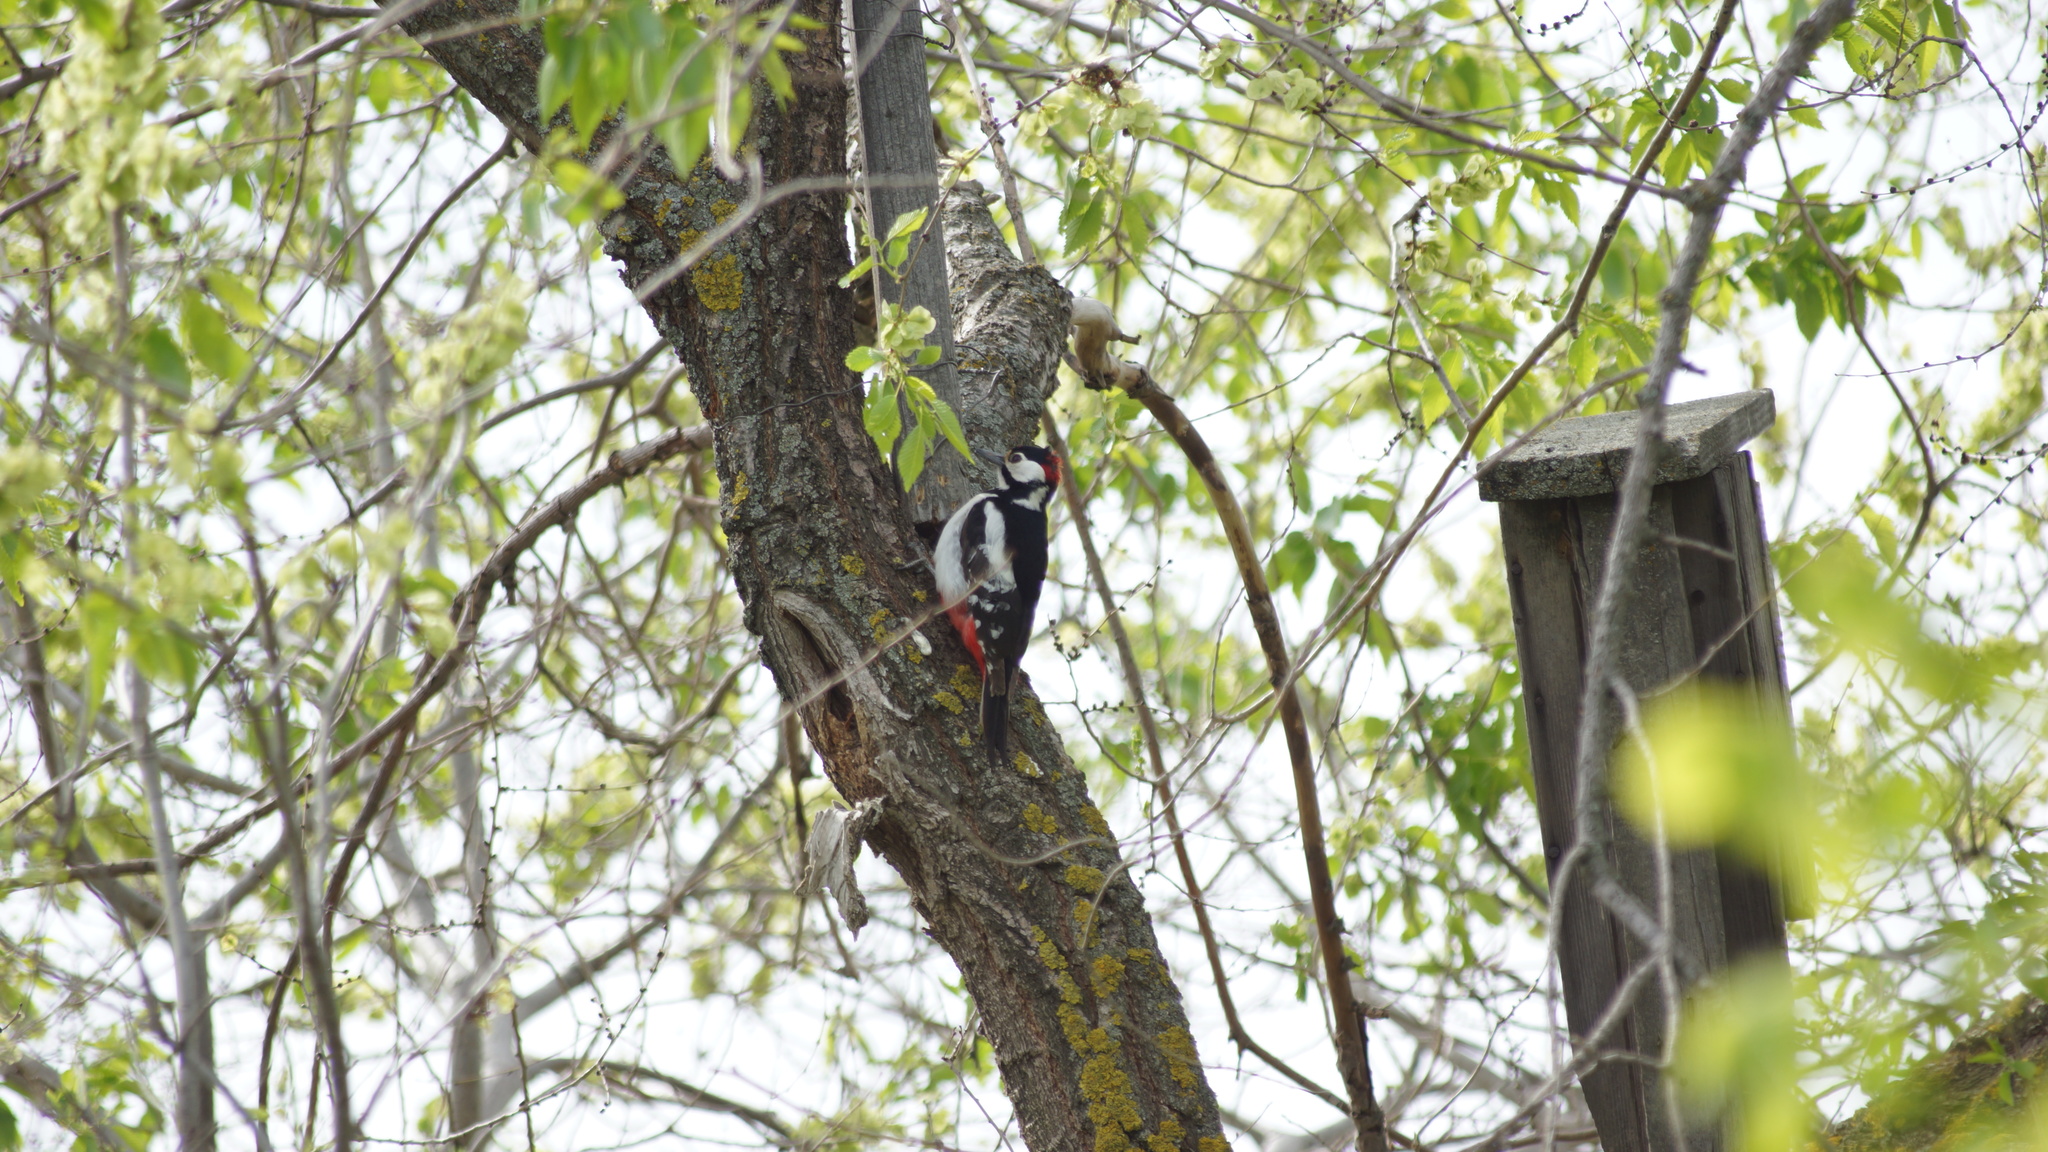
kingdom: Animalia
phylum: Chordata
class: Aves
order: Piciformes
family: Picidae
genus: Dendrocopos
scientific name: Dendrocopos major
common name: Great spotted woodpecker
